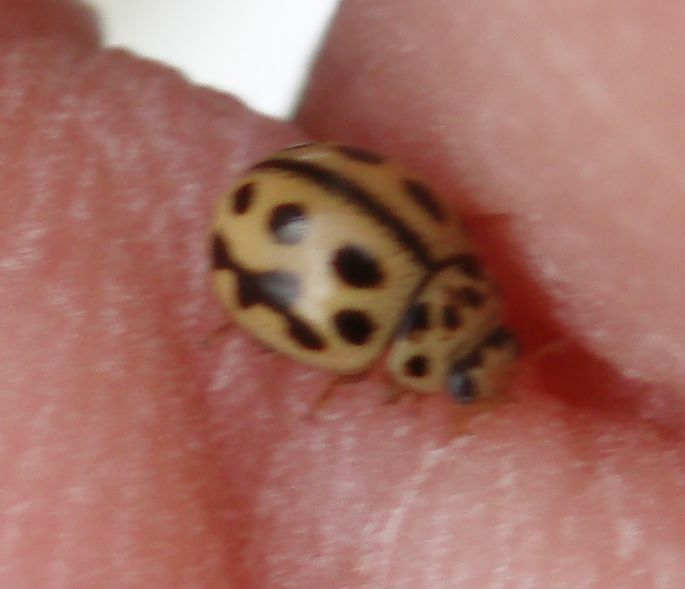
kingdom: Animalia
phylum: Arthropoda
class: Insecta
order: Coleoptera
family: Coccinellidae
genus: Tytthaspis
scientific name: Tytthaspis sedecimpunctata
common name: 16-spot ladybird
